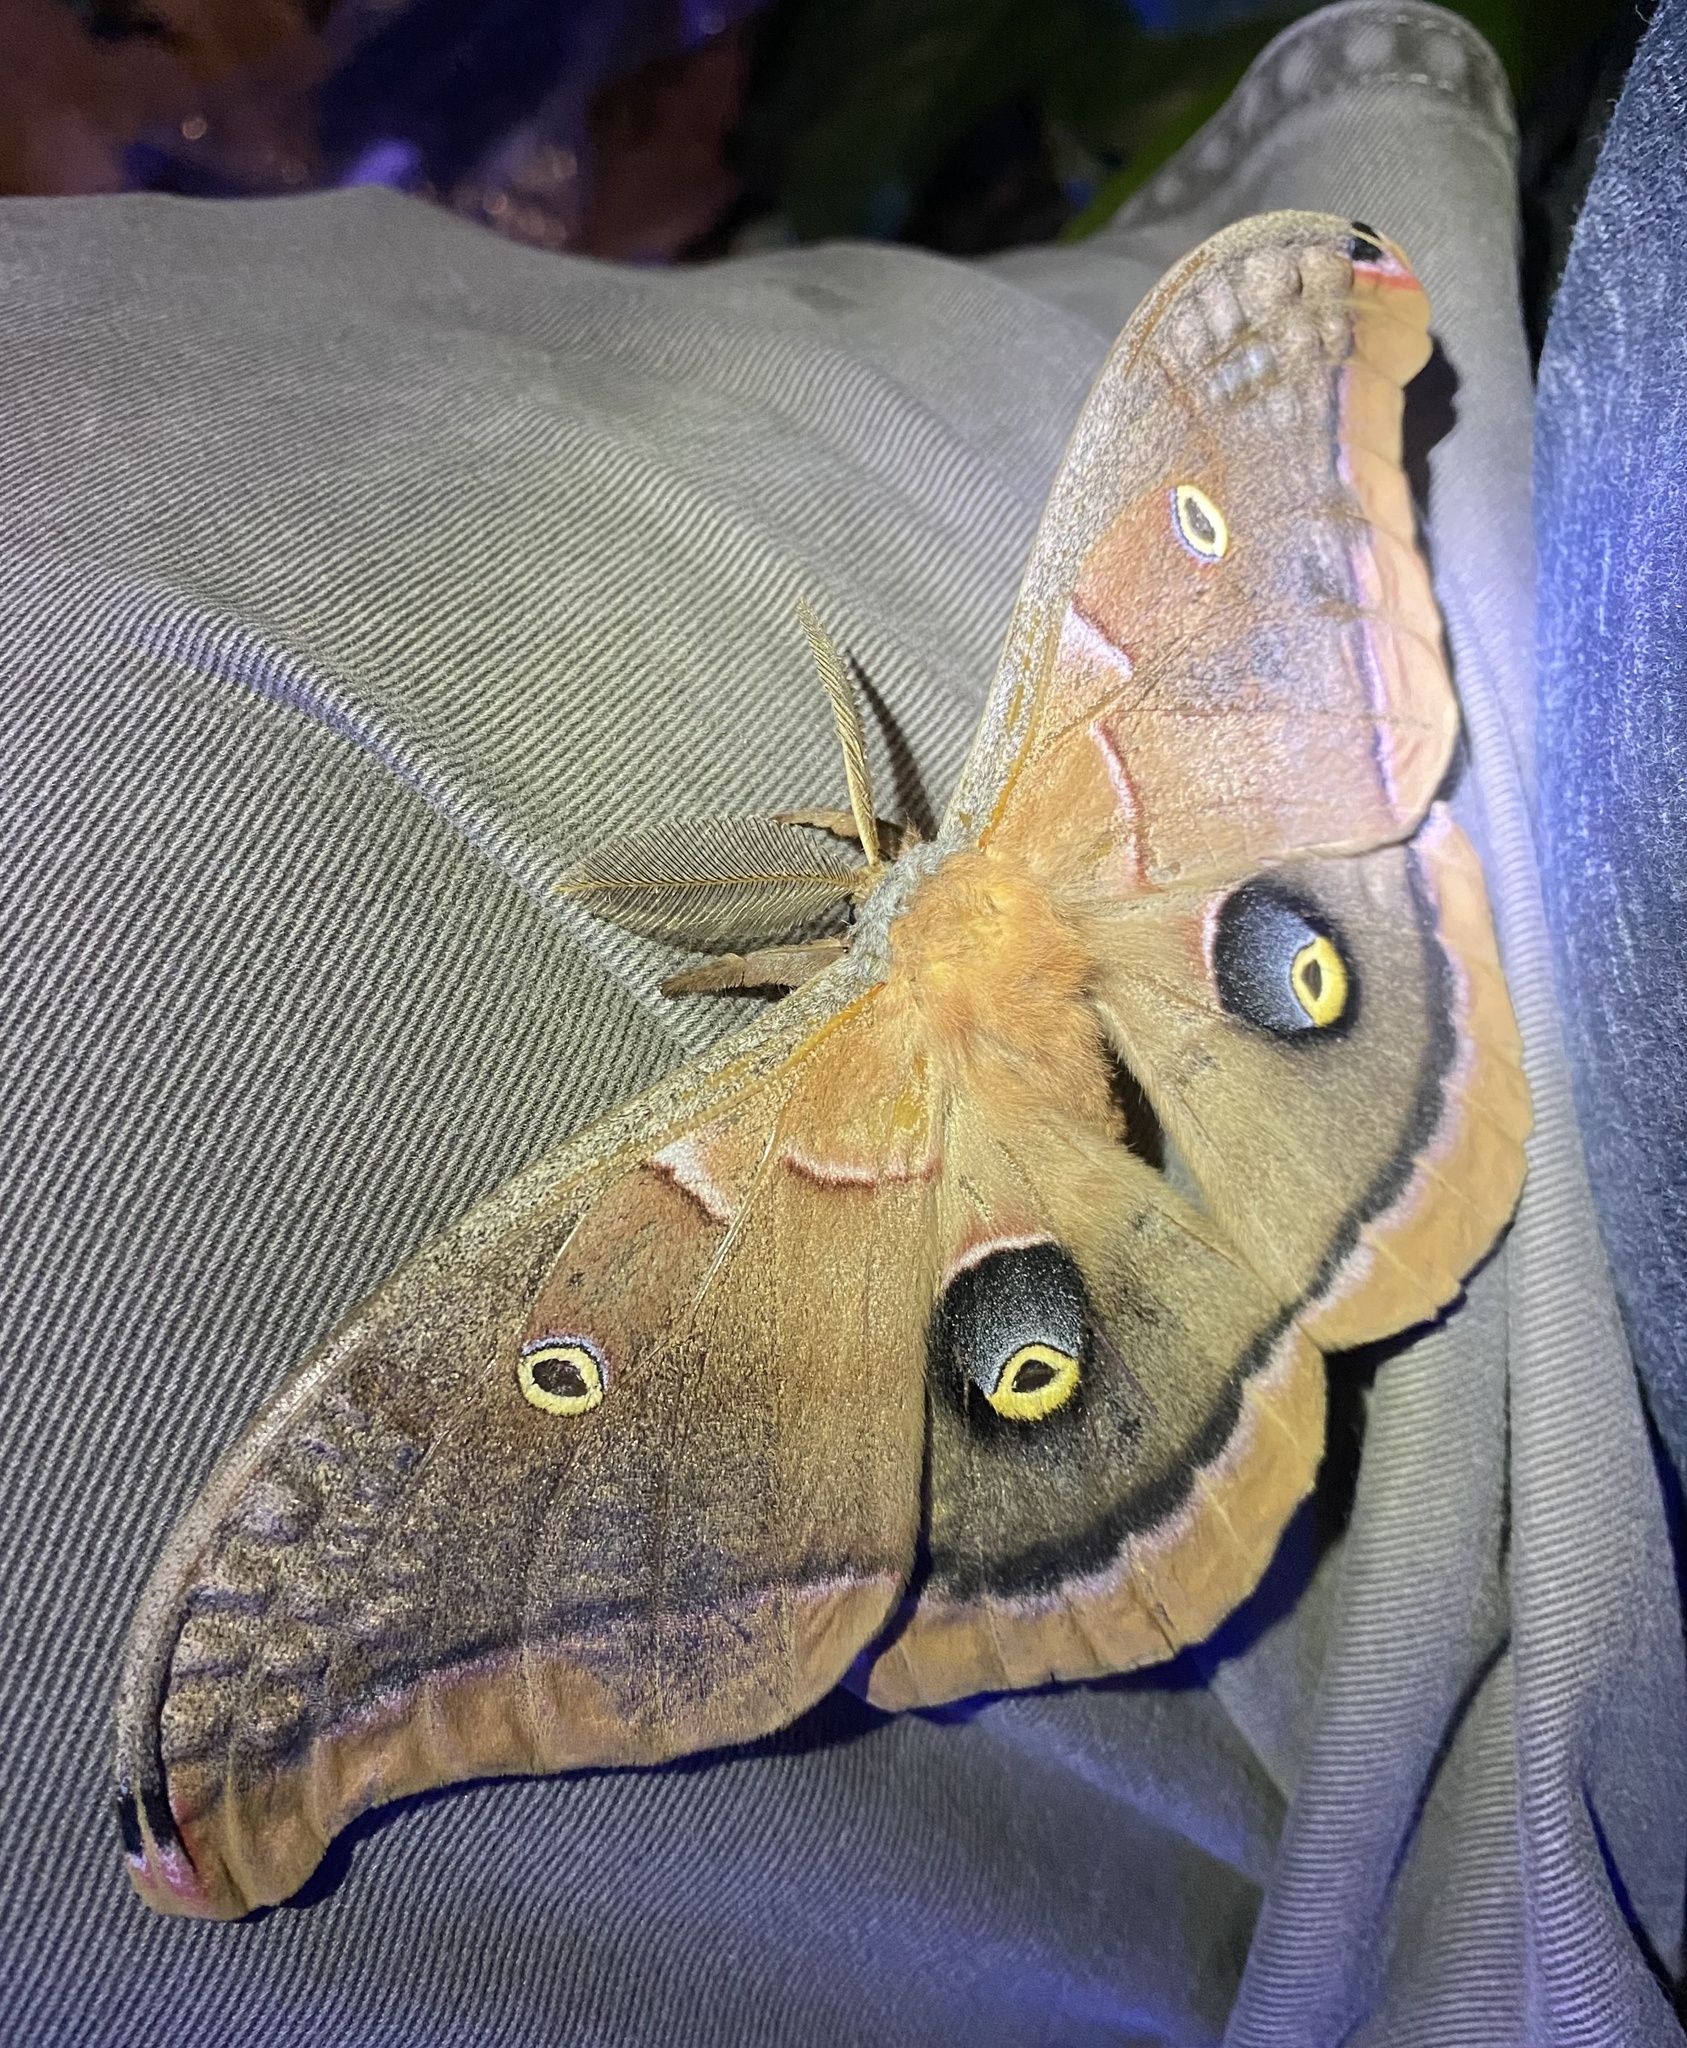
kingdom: Animalia
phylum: Arthropoda
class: Insecta
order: Lepidoptera
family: Saturniidae
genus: Antheraea
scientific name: Antheraea polyphemus
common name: Polyphemus moth
